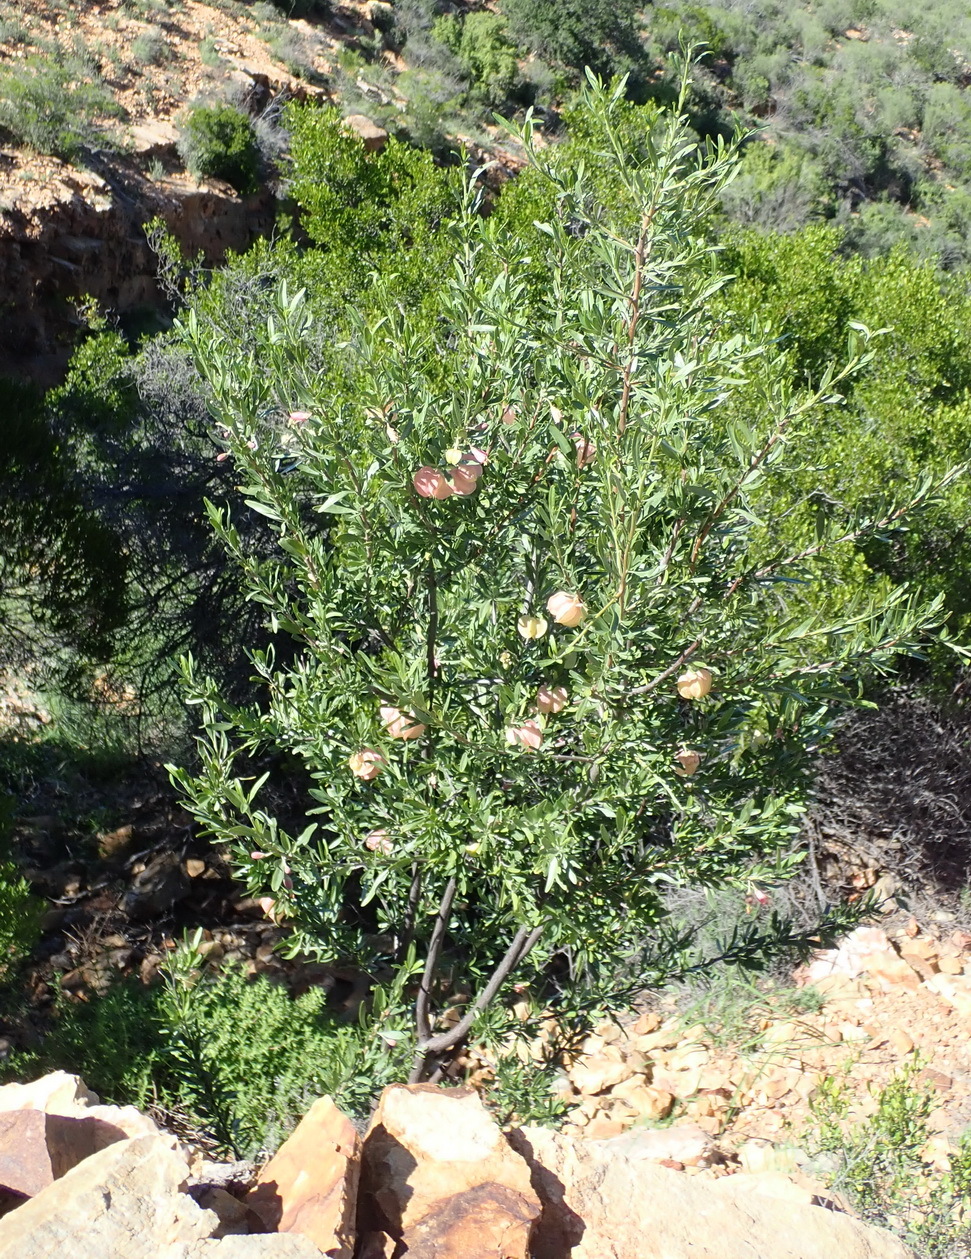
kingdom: Plantae
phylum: Tracheophyta
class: Magnoliopsida
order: Sapindales
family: Meliaceae
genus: Nymania
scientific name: Nymania capensis
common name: Chinese lantern tree
